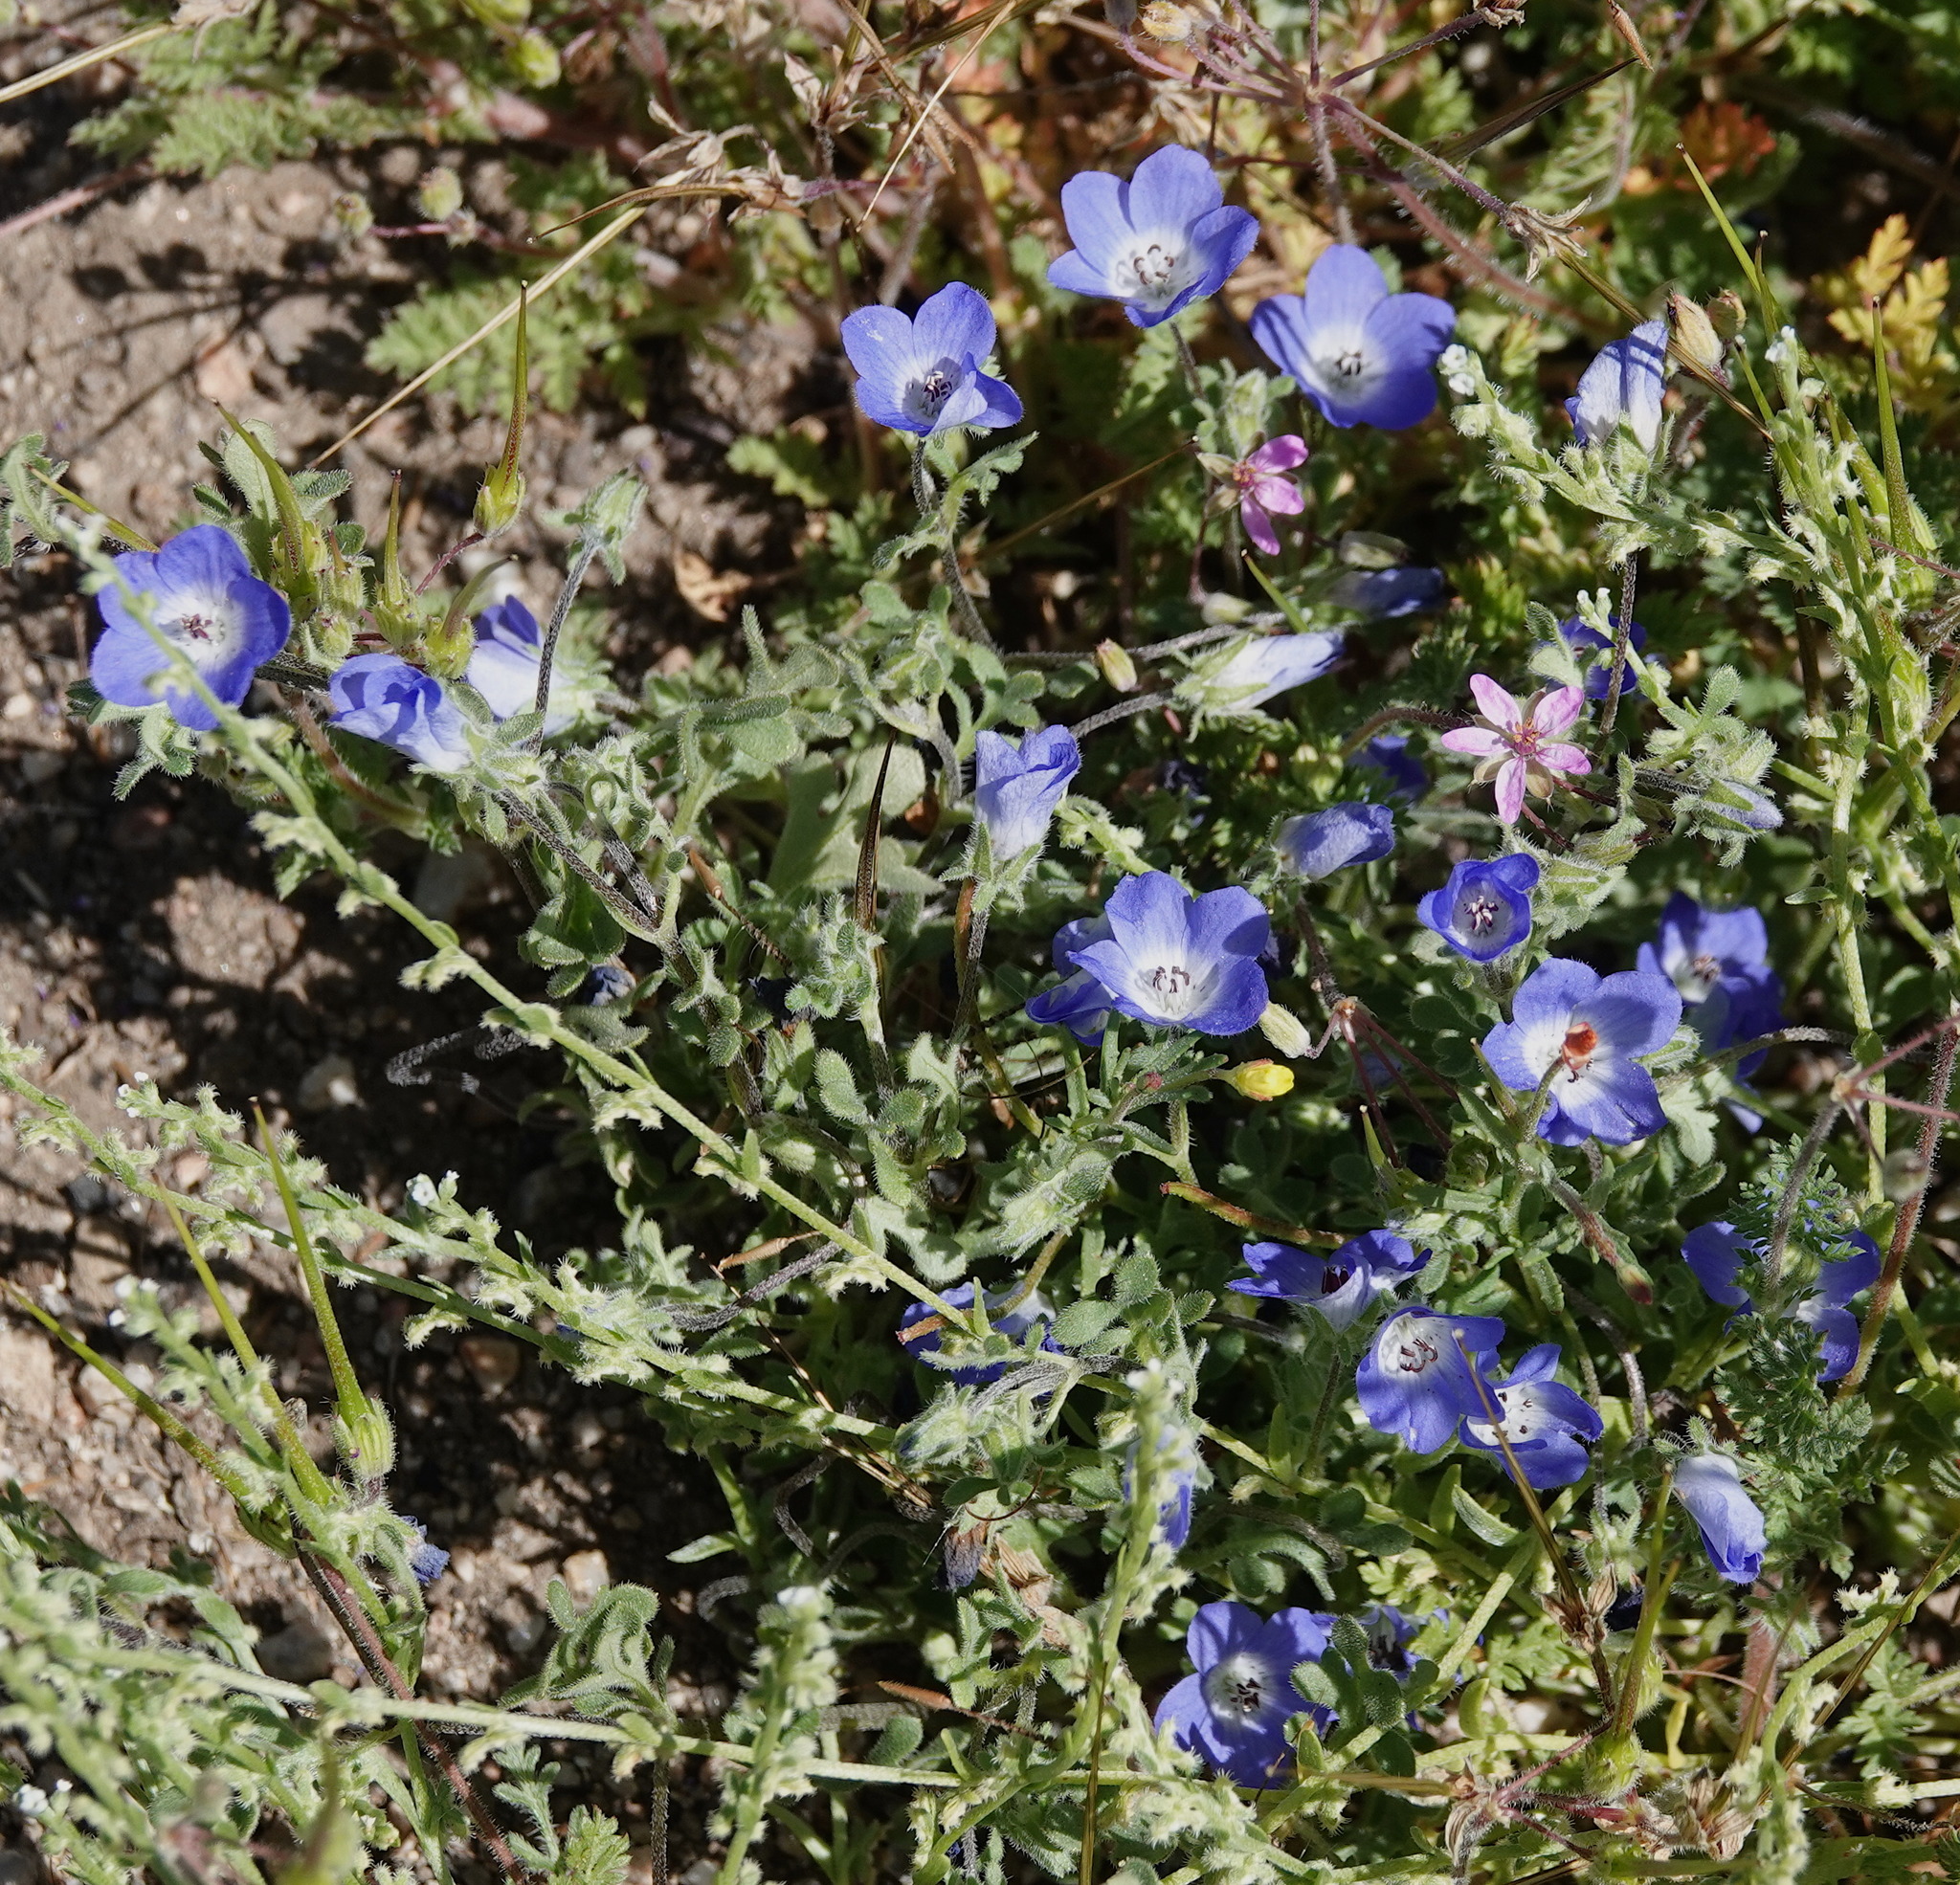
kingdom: Plantae
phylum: Tracheophyta
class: Magnoliopsida
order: Boraginales
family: Hydrophyllaceae
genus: Nemophila
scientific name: Nemophila menziesii
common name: Baby's-blue-eyes
